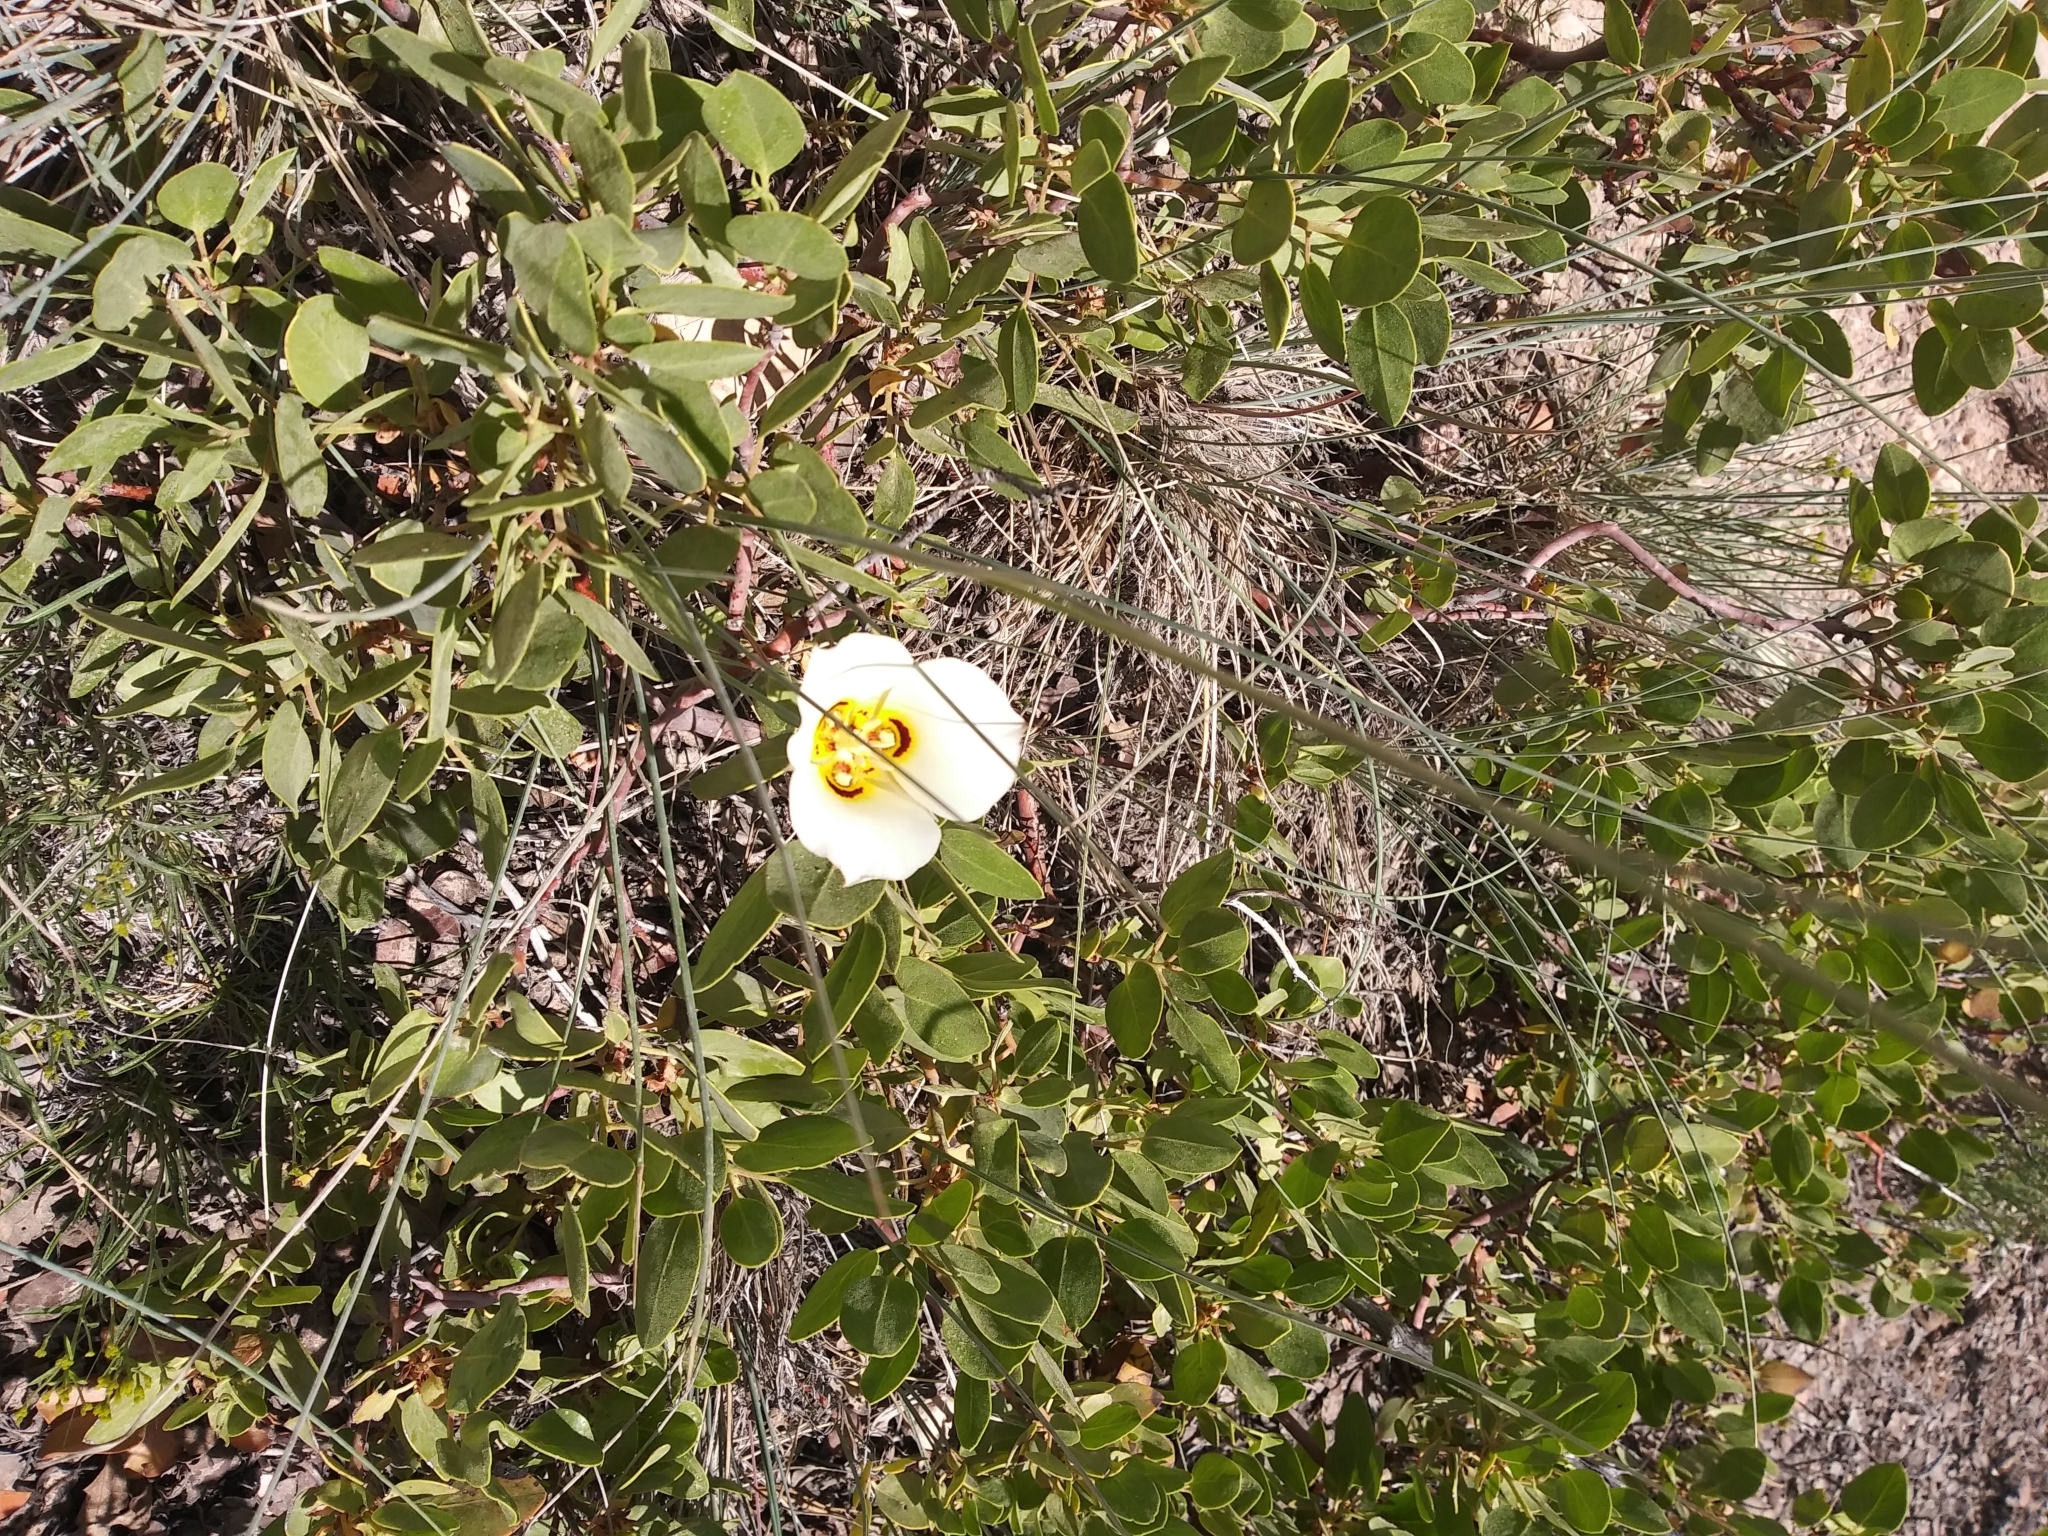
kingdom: Plantae
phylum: Tracheophyta
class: Liliopsida
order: Liliales
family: Liliaceae
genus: Calochortus
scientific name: Calochortus nuttallii
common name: Sego-lily
